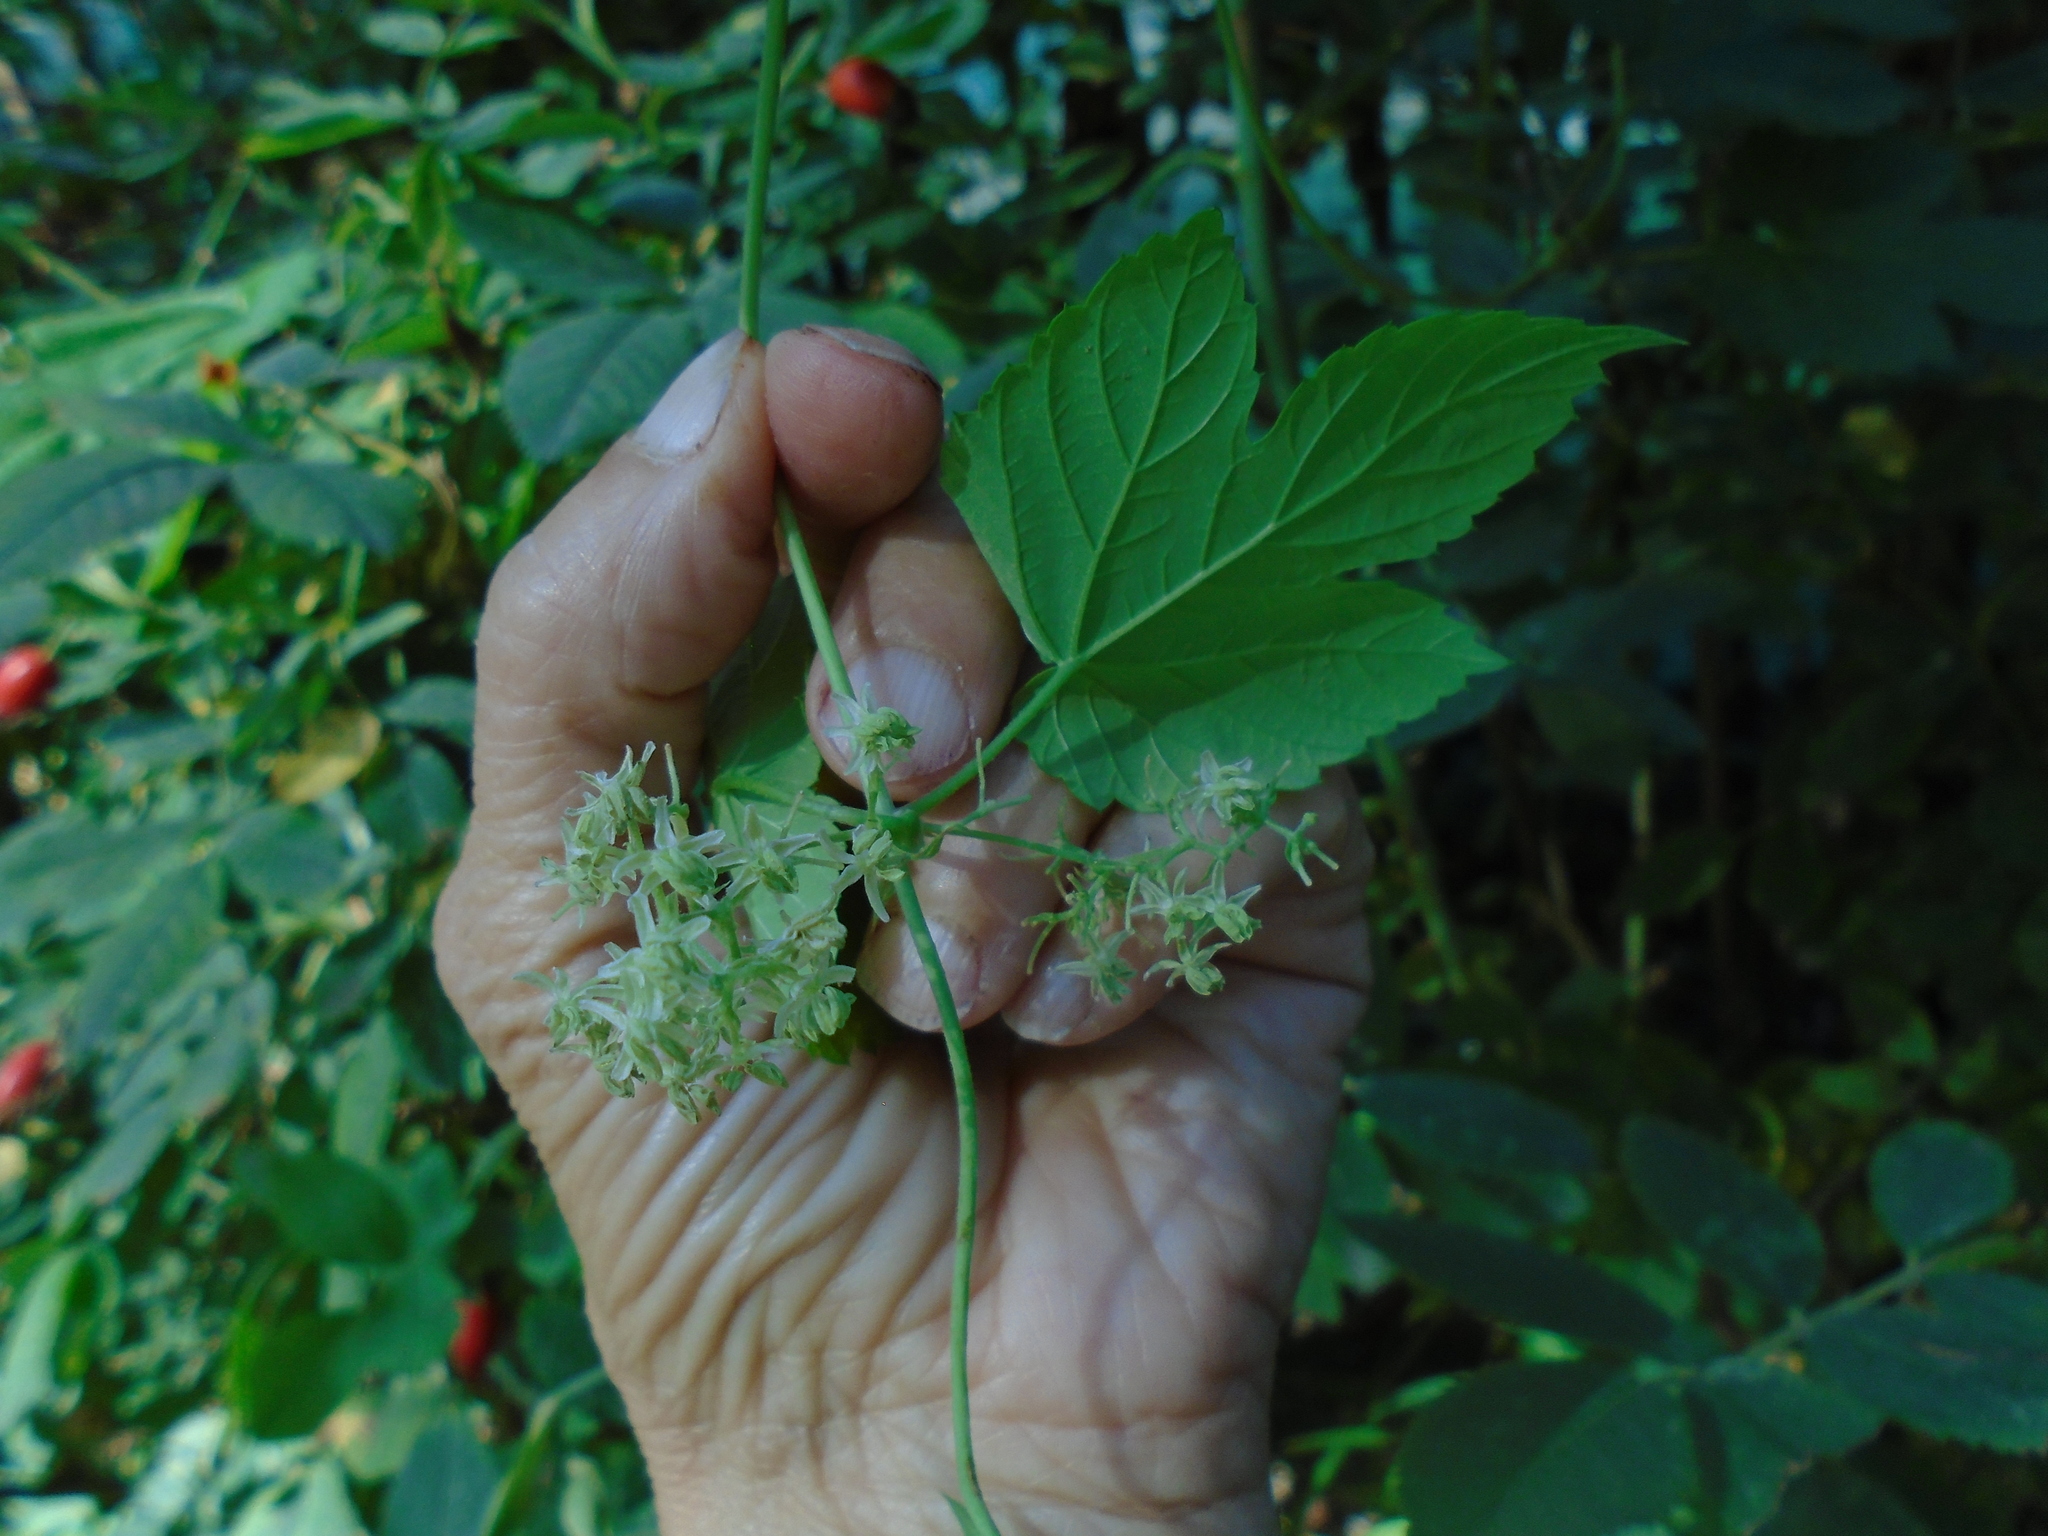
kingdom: Plantae
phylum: Tracheophyta
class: Magnoliopsida
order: Rosales
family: Cannabaceae
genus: Humulus
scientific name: Humulus lupulus
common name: Hop
